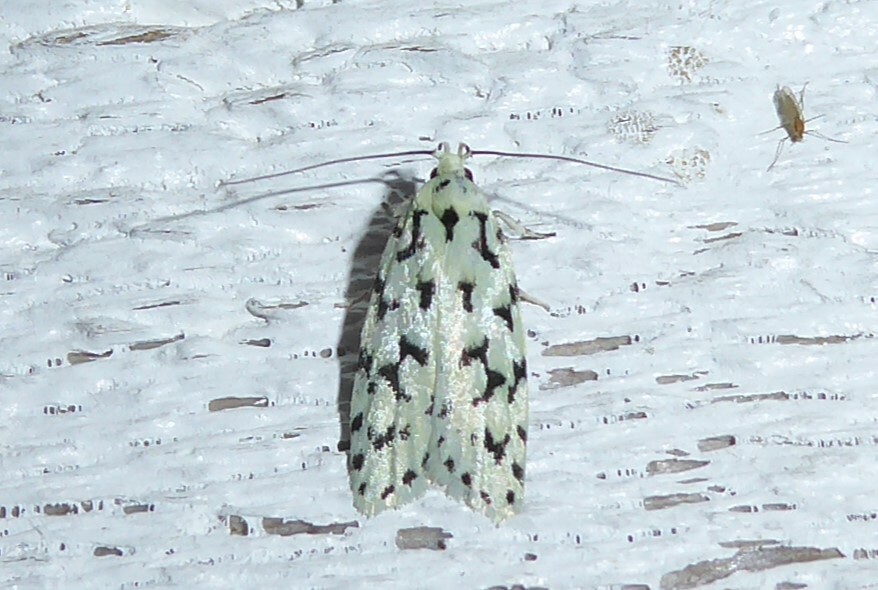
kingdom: Animalia
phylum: Arthropoda
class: Insecta
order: Lepidoptera
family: Oecophoridae
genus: Izatha
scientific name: Izatha huttoni
